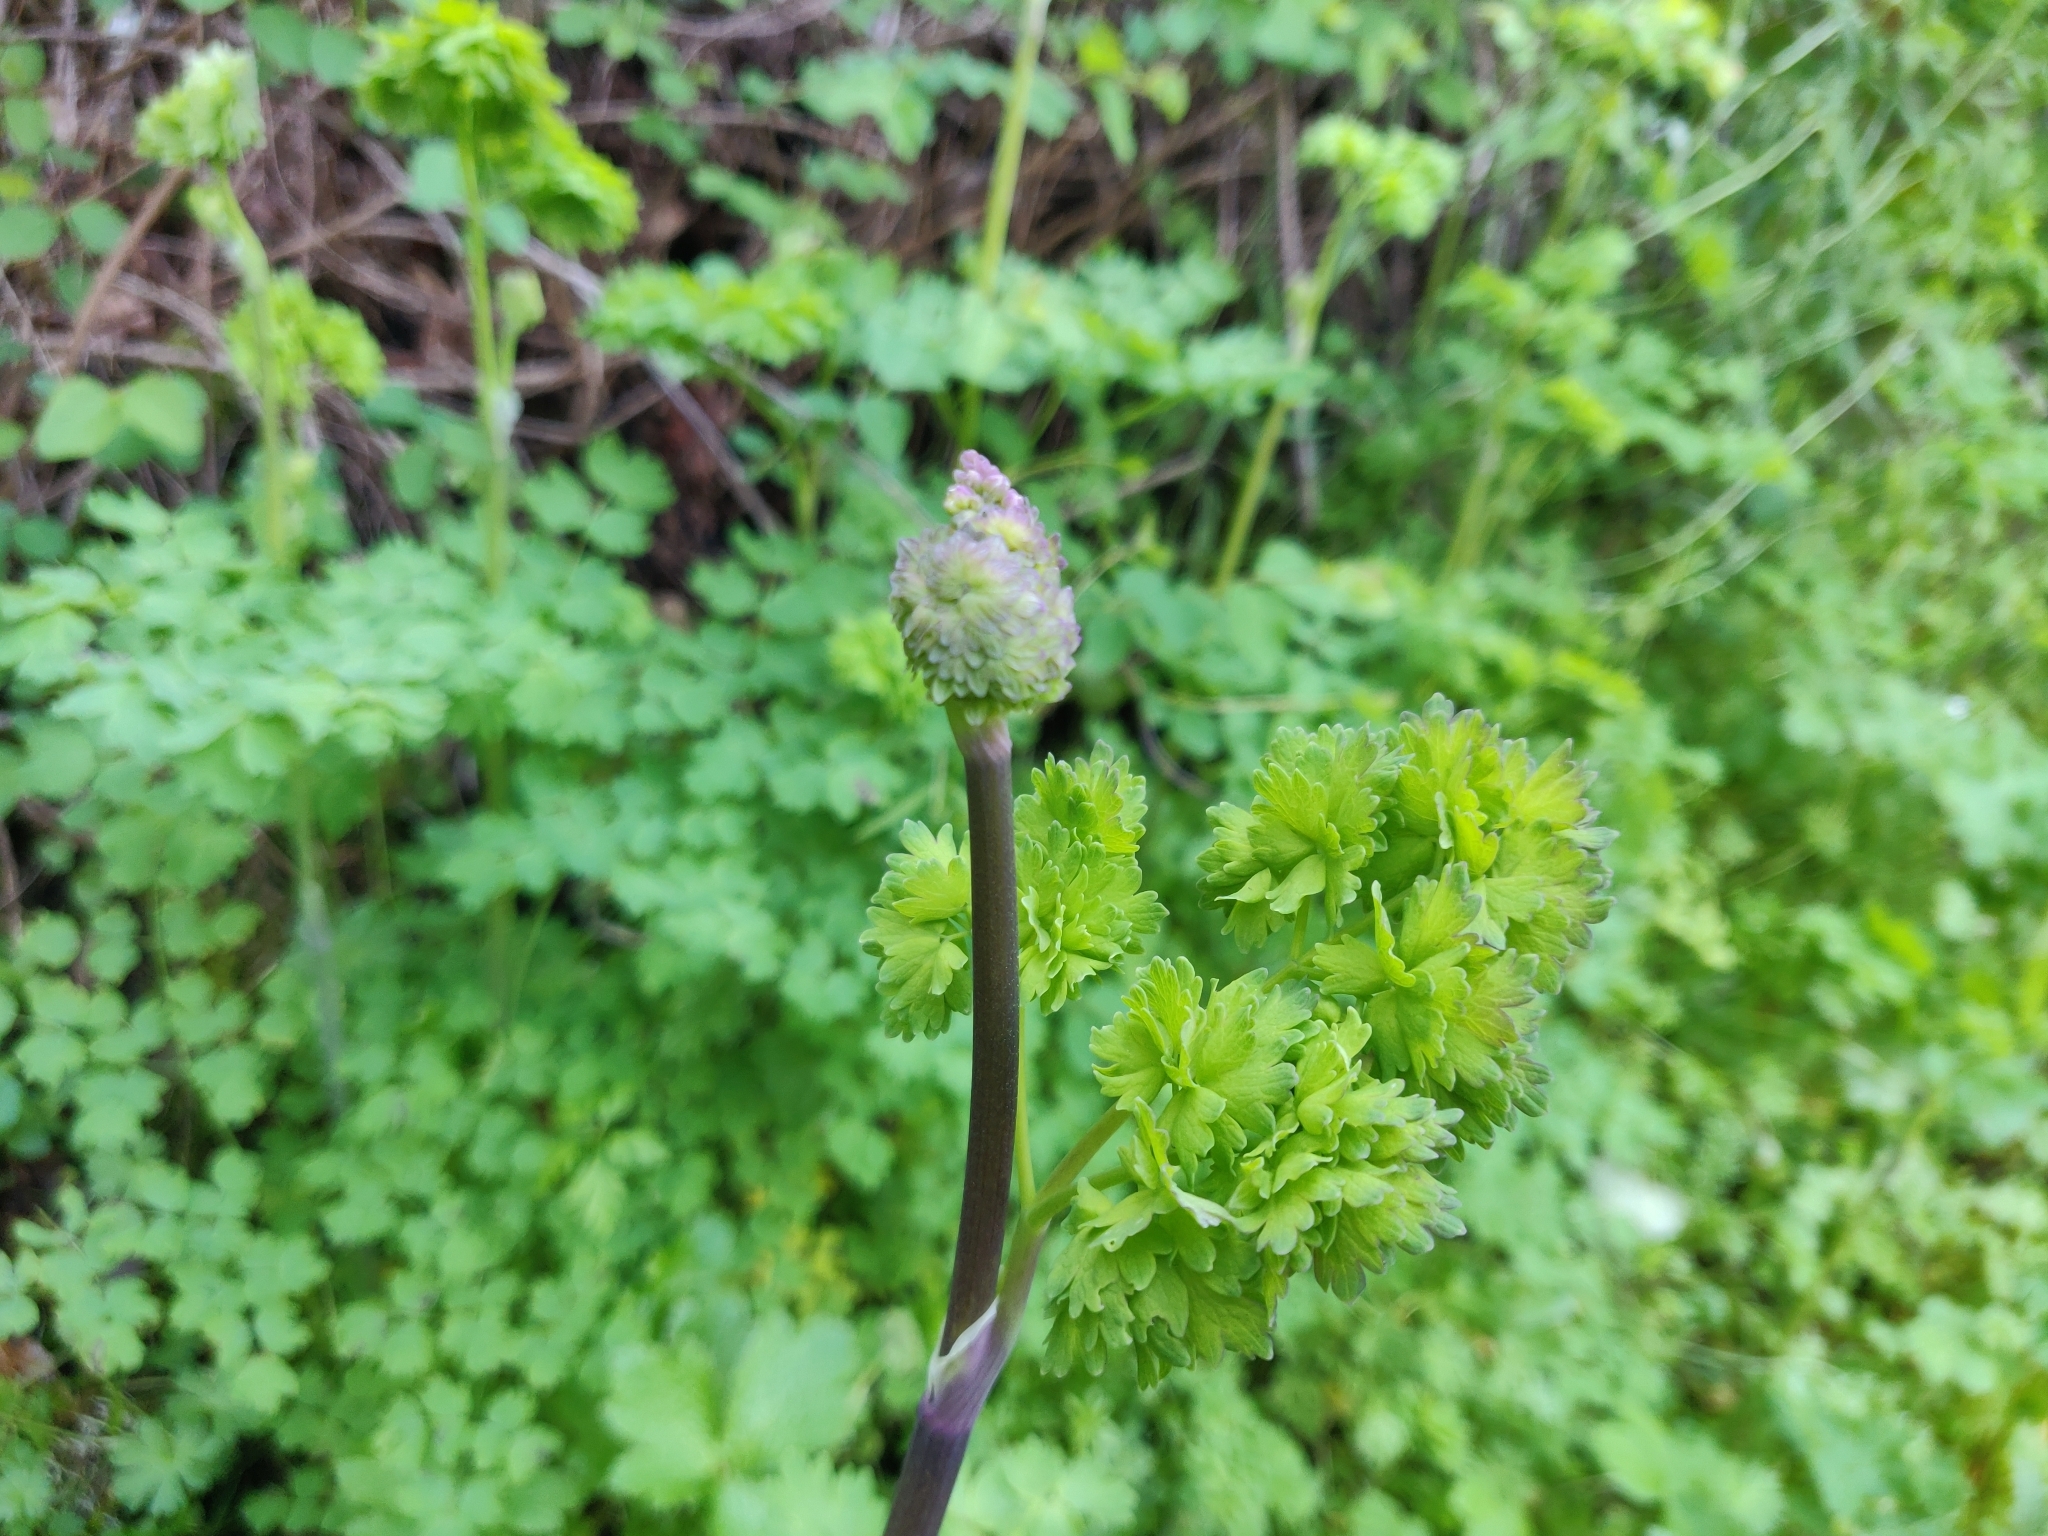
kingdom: Plantae
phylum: Tracheophyta
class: Magnoliopsida
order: Ranunculales
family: Ranunculaceae
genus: Thalictrum
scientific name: Thalictrum fendleri
